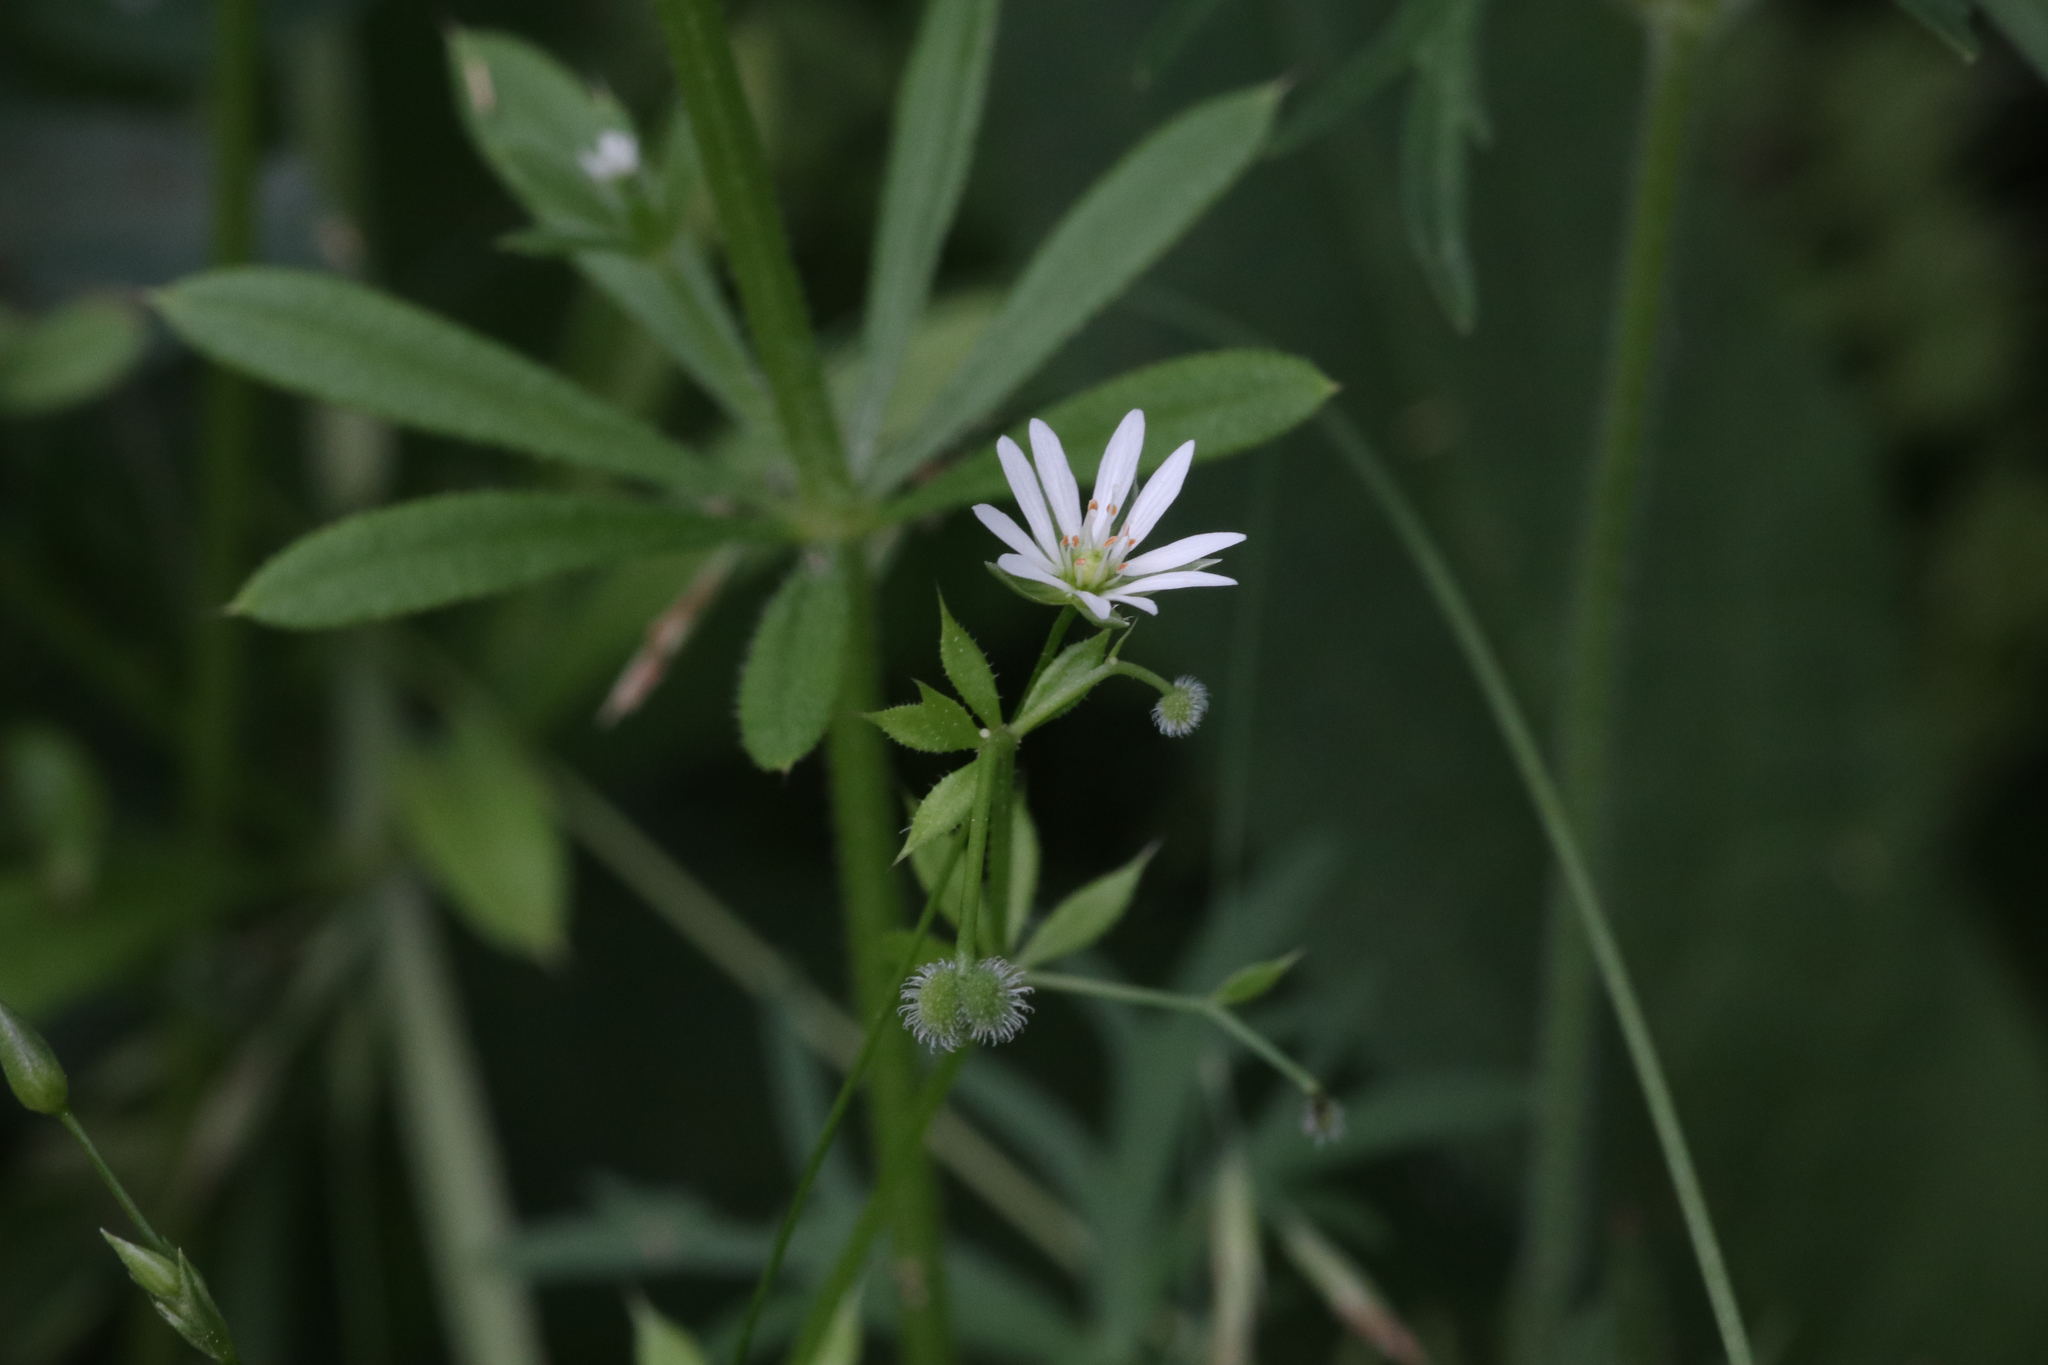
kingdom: Plantae
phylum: Tracheophyta
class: Magnoliopsida
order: Caryophyllales
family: Caryophyllaceae
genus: Stellaria
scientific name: Stellaria graminea
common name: Grass-like starwort
